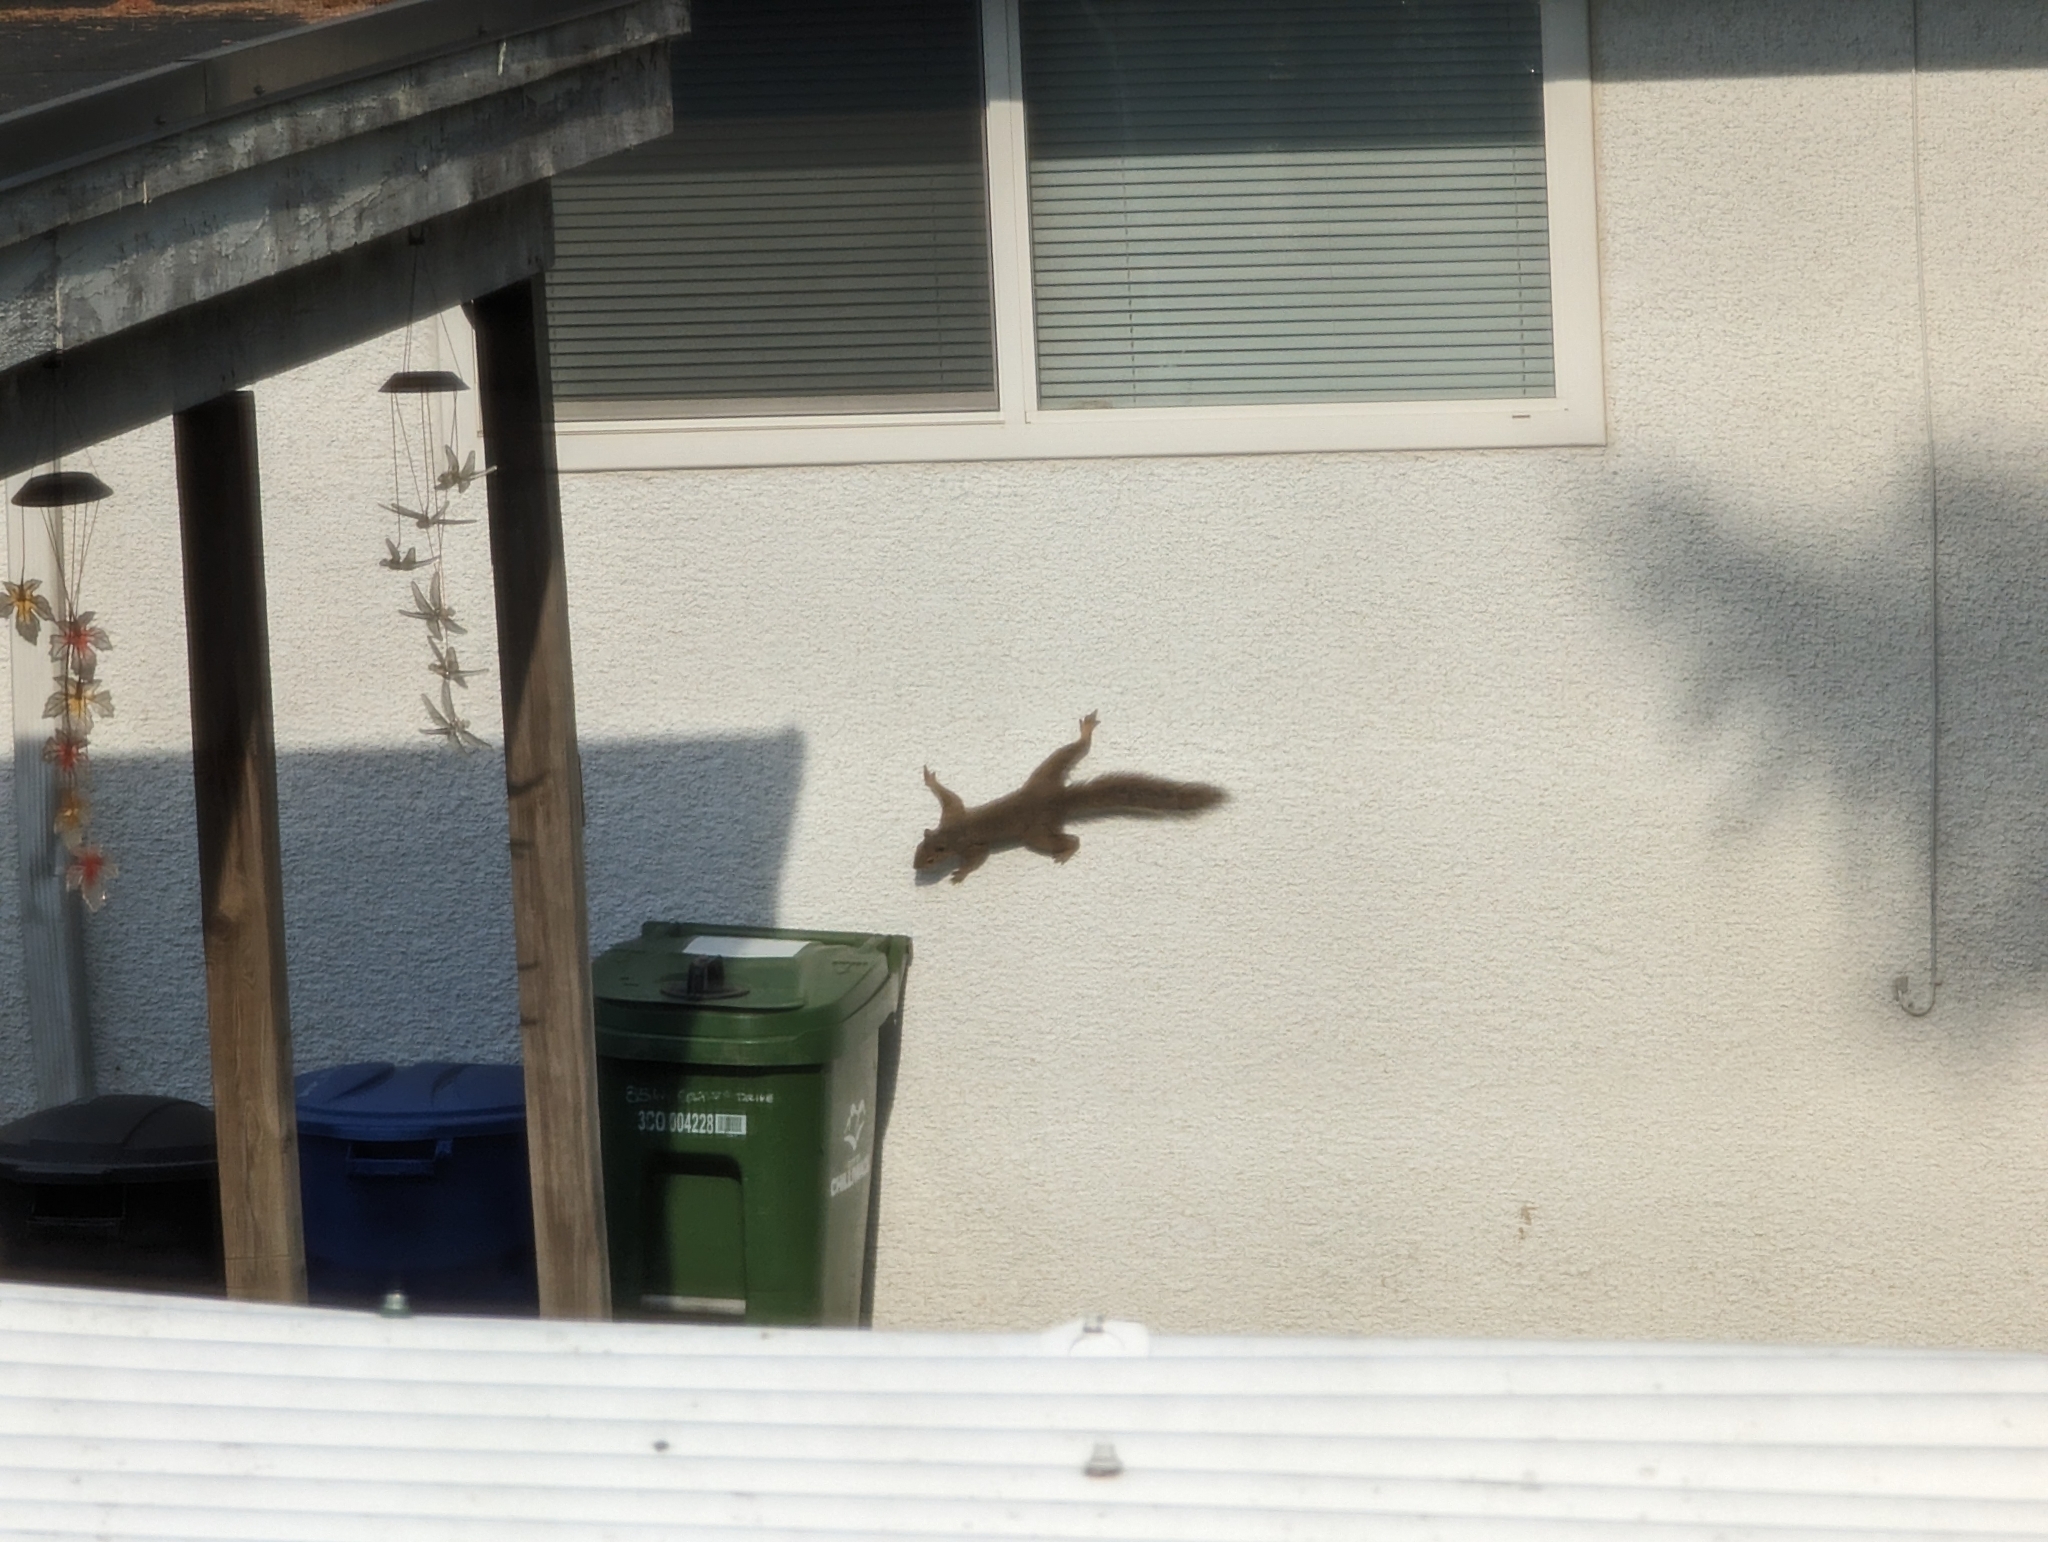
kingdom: Animalia
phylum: Chordata
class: Mammalia
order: Rodentia
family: Sciuridae
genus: Sciurus
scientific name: Sciurus carolinensis
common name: Eastern gray squirrel
